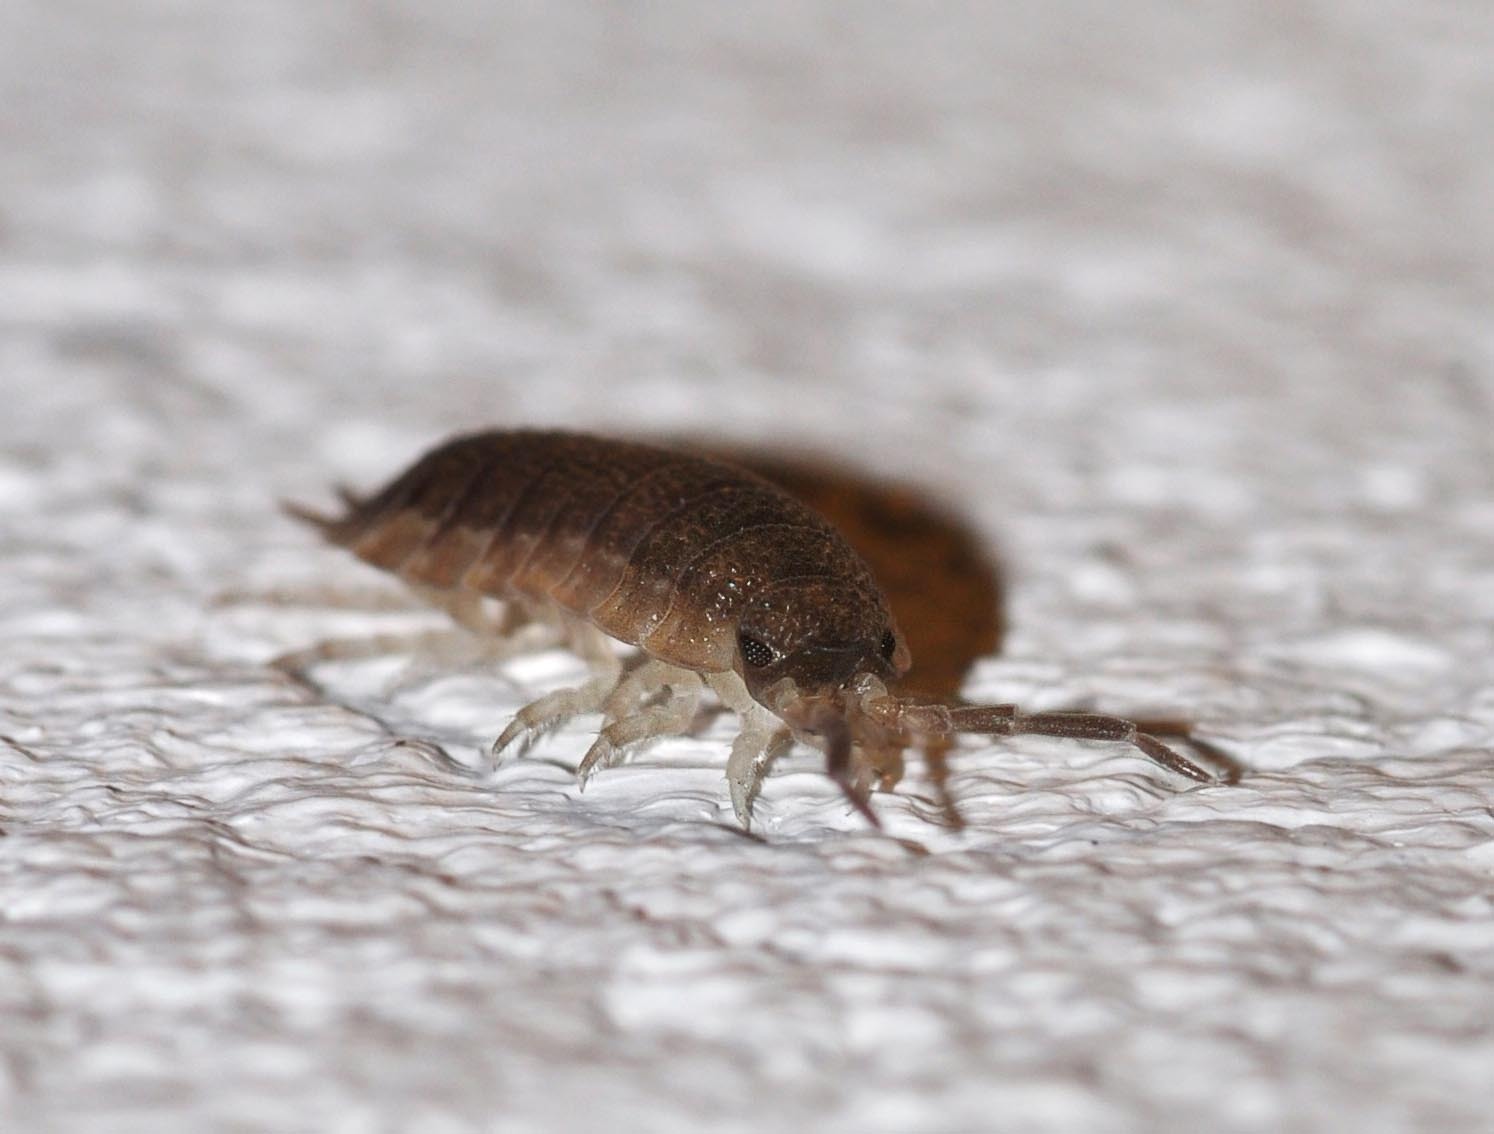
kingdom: Animalia
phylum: Arthropoda
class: Malacostraca
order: Isopoda
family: Porcellionidae
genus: Porcellio
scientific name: Porcellio scaber
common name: Common rough woodlouse
